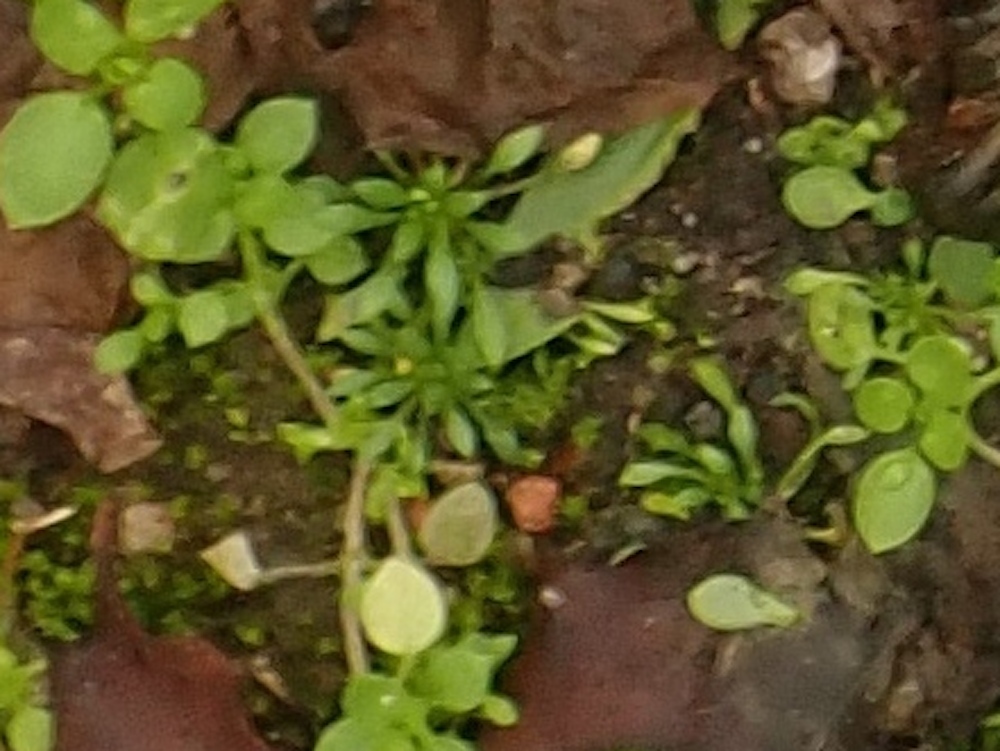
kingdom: Plantae
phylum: Tracheophyta
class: Magnoliopsida
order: Brassicales
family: Brassicaceae
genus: Draba
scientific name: Draba verna
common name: Spring draba
